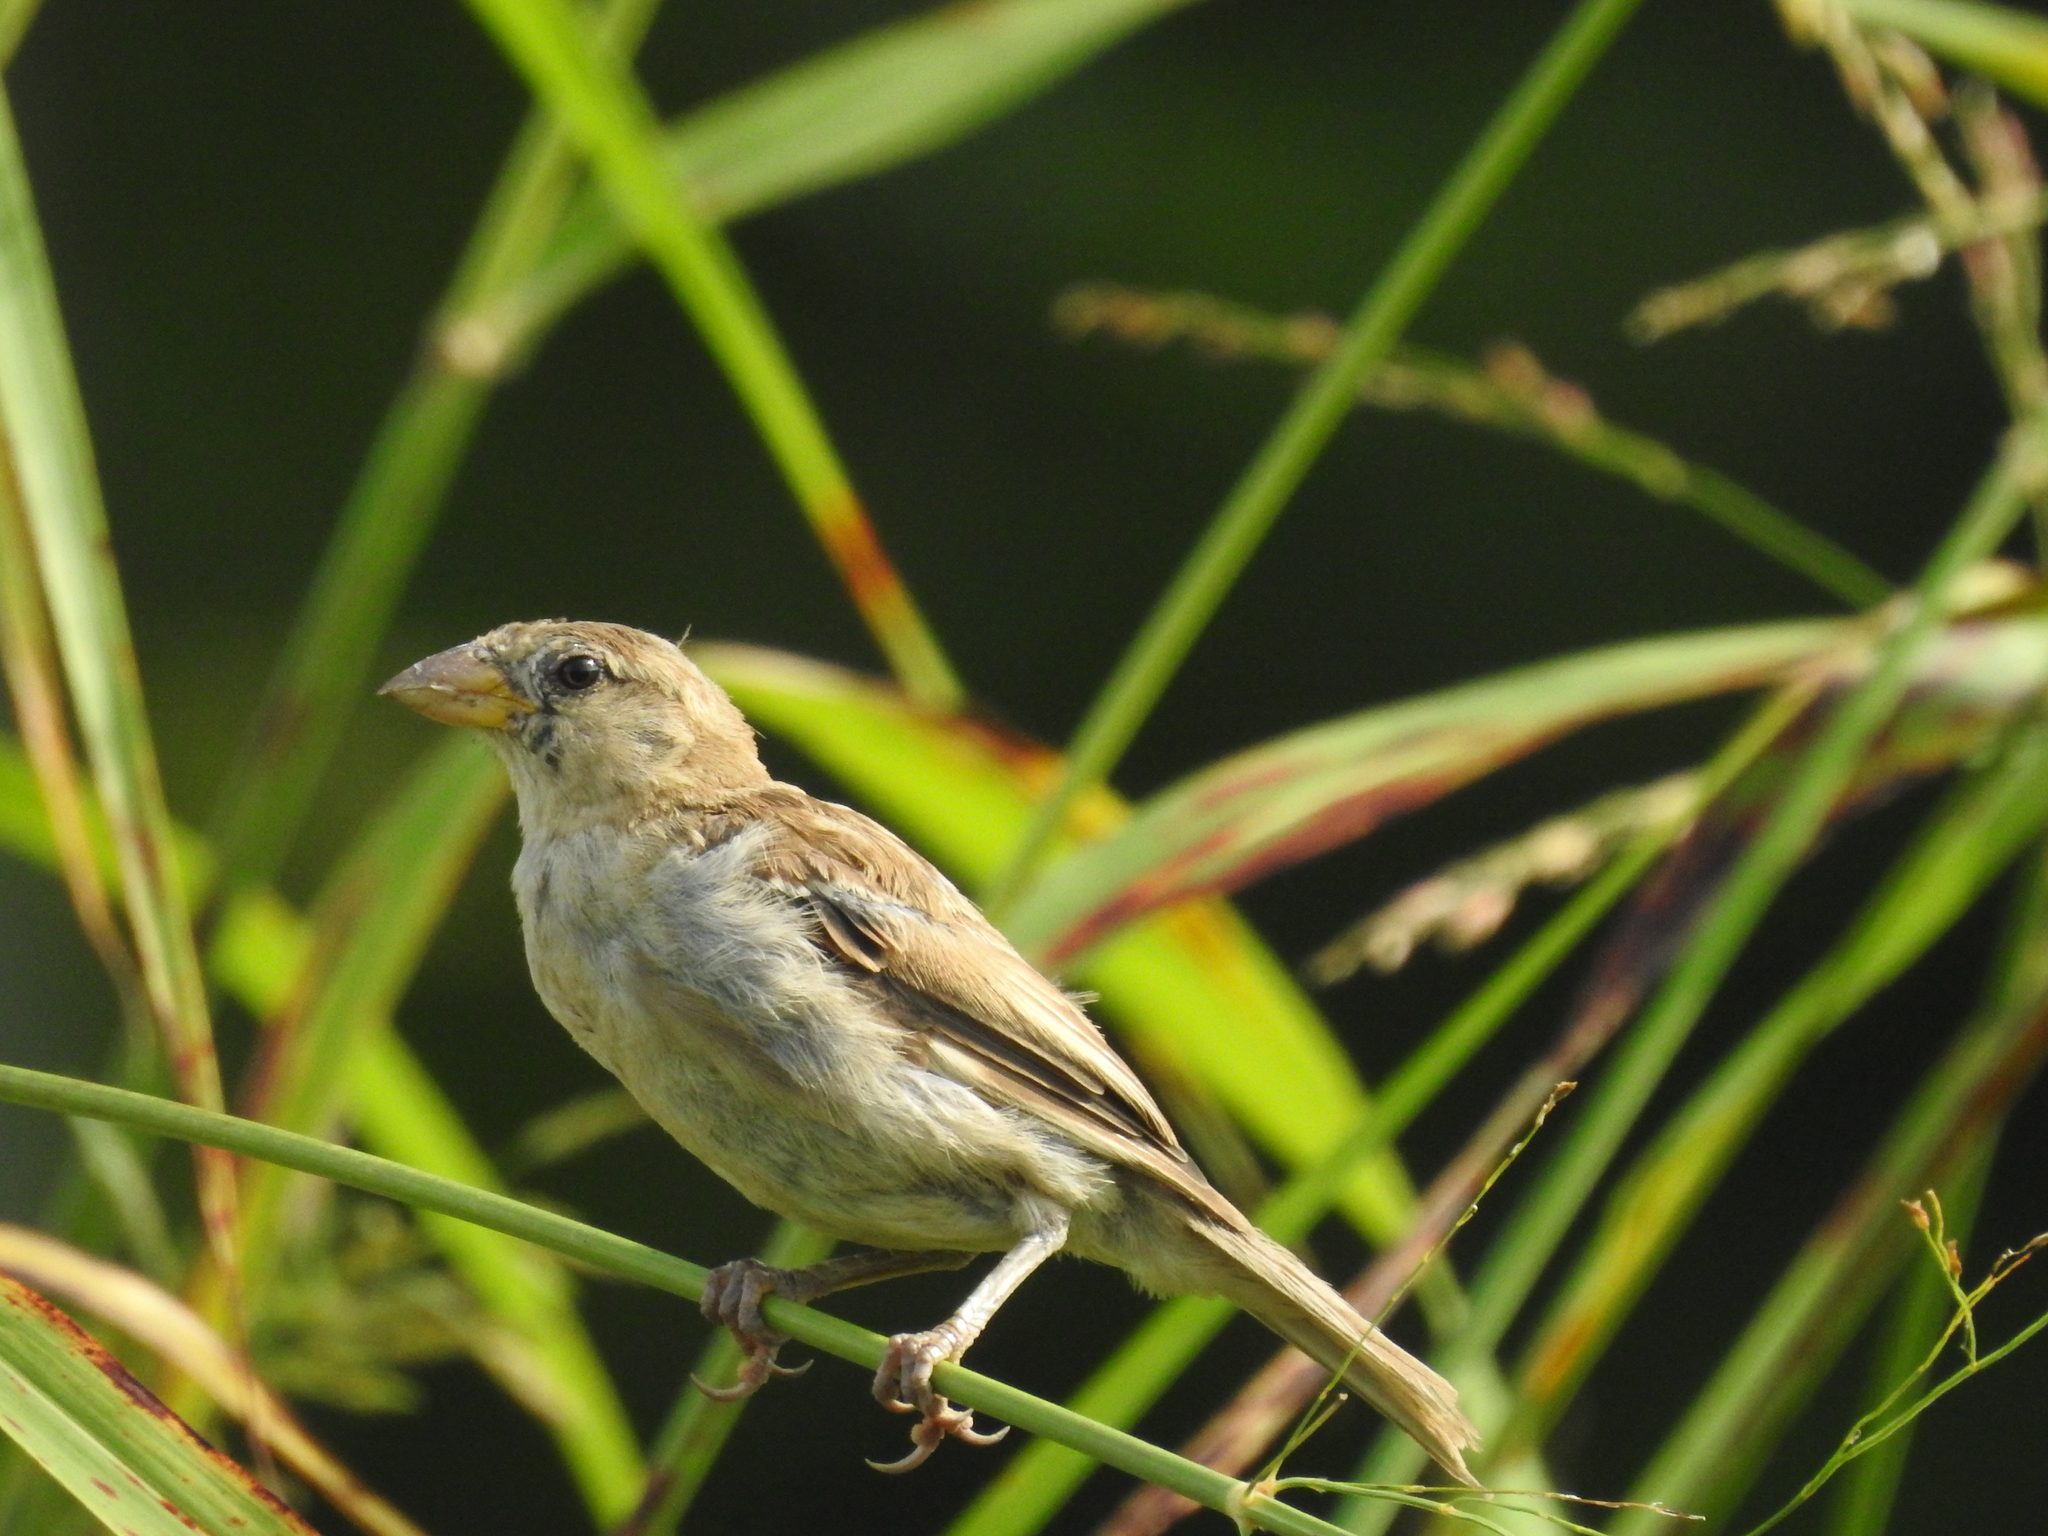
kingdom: Animalia
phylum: Chordata
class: Aves
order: Passeriformes
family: Passeridae
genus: Passer
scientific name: Passer domesticus
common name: House sparrow
